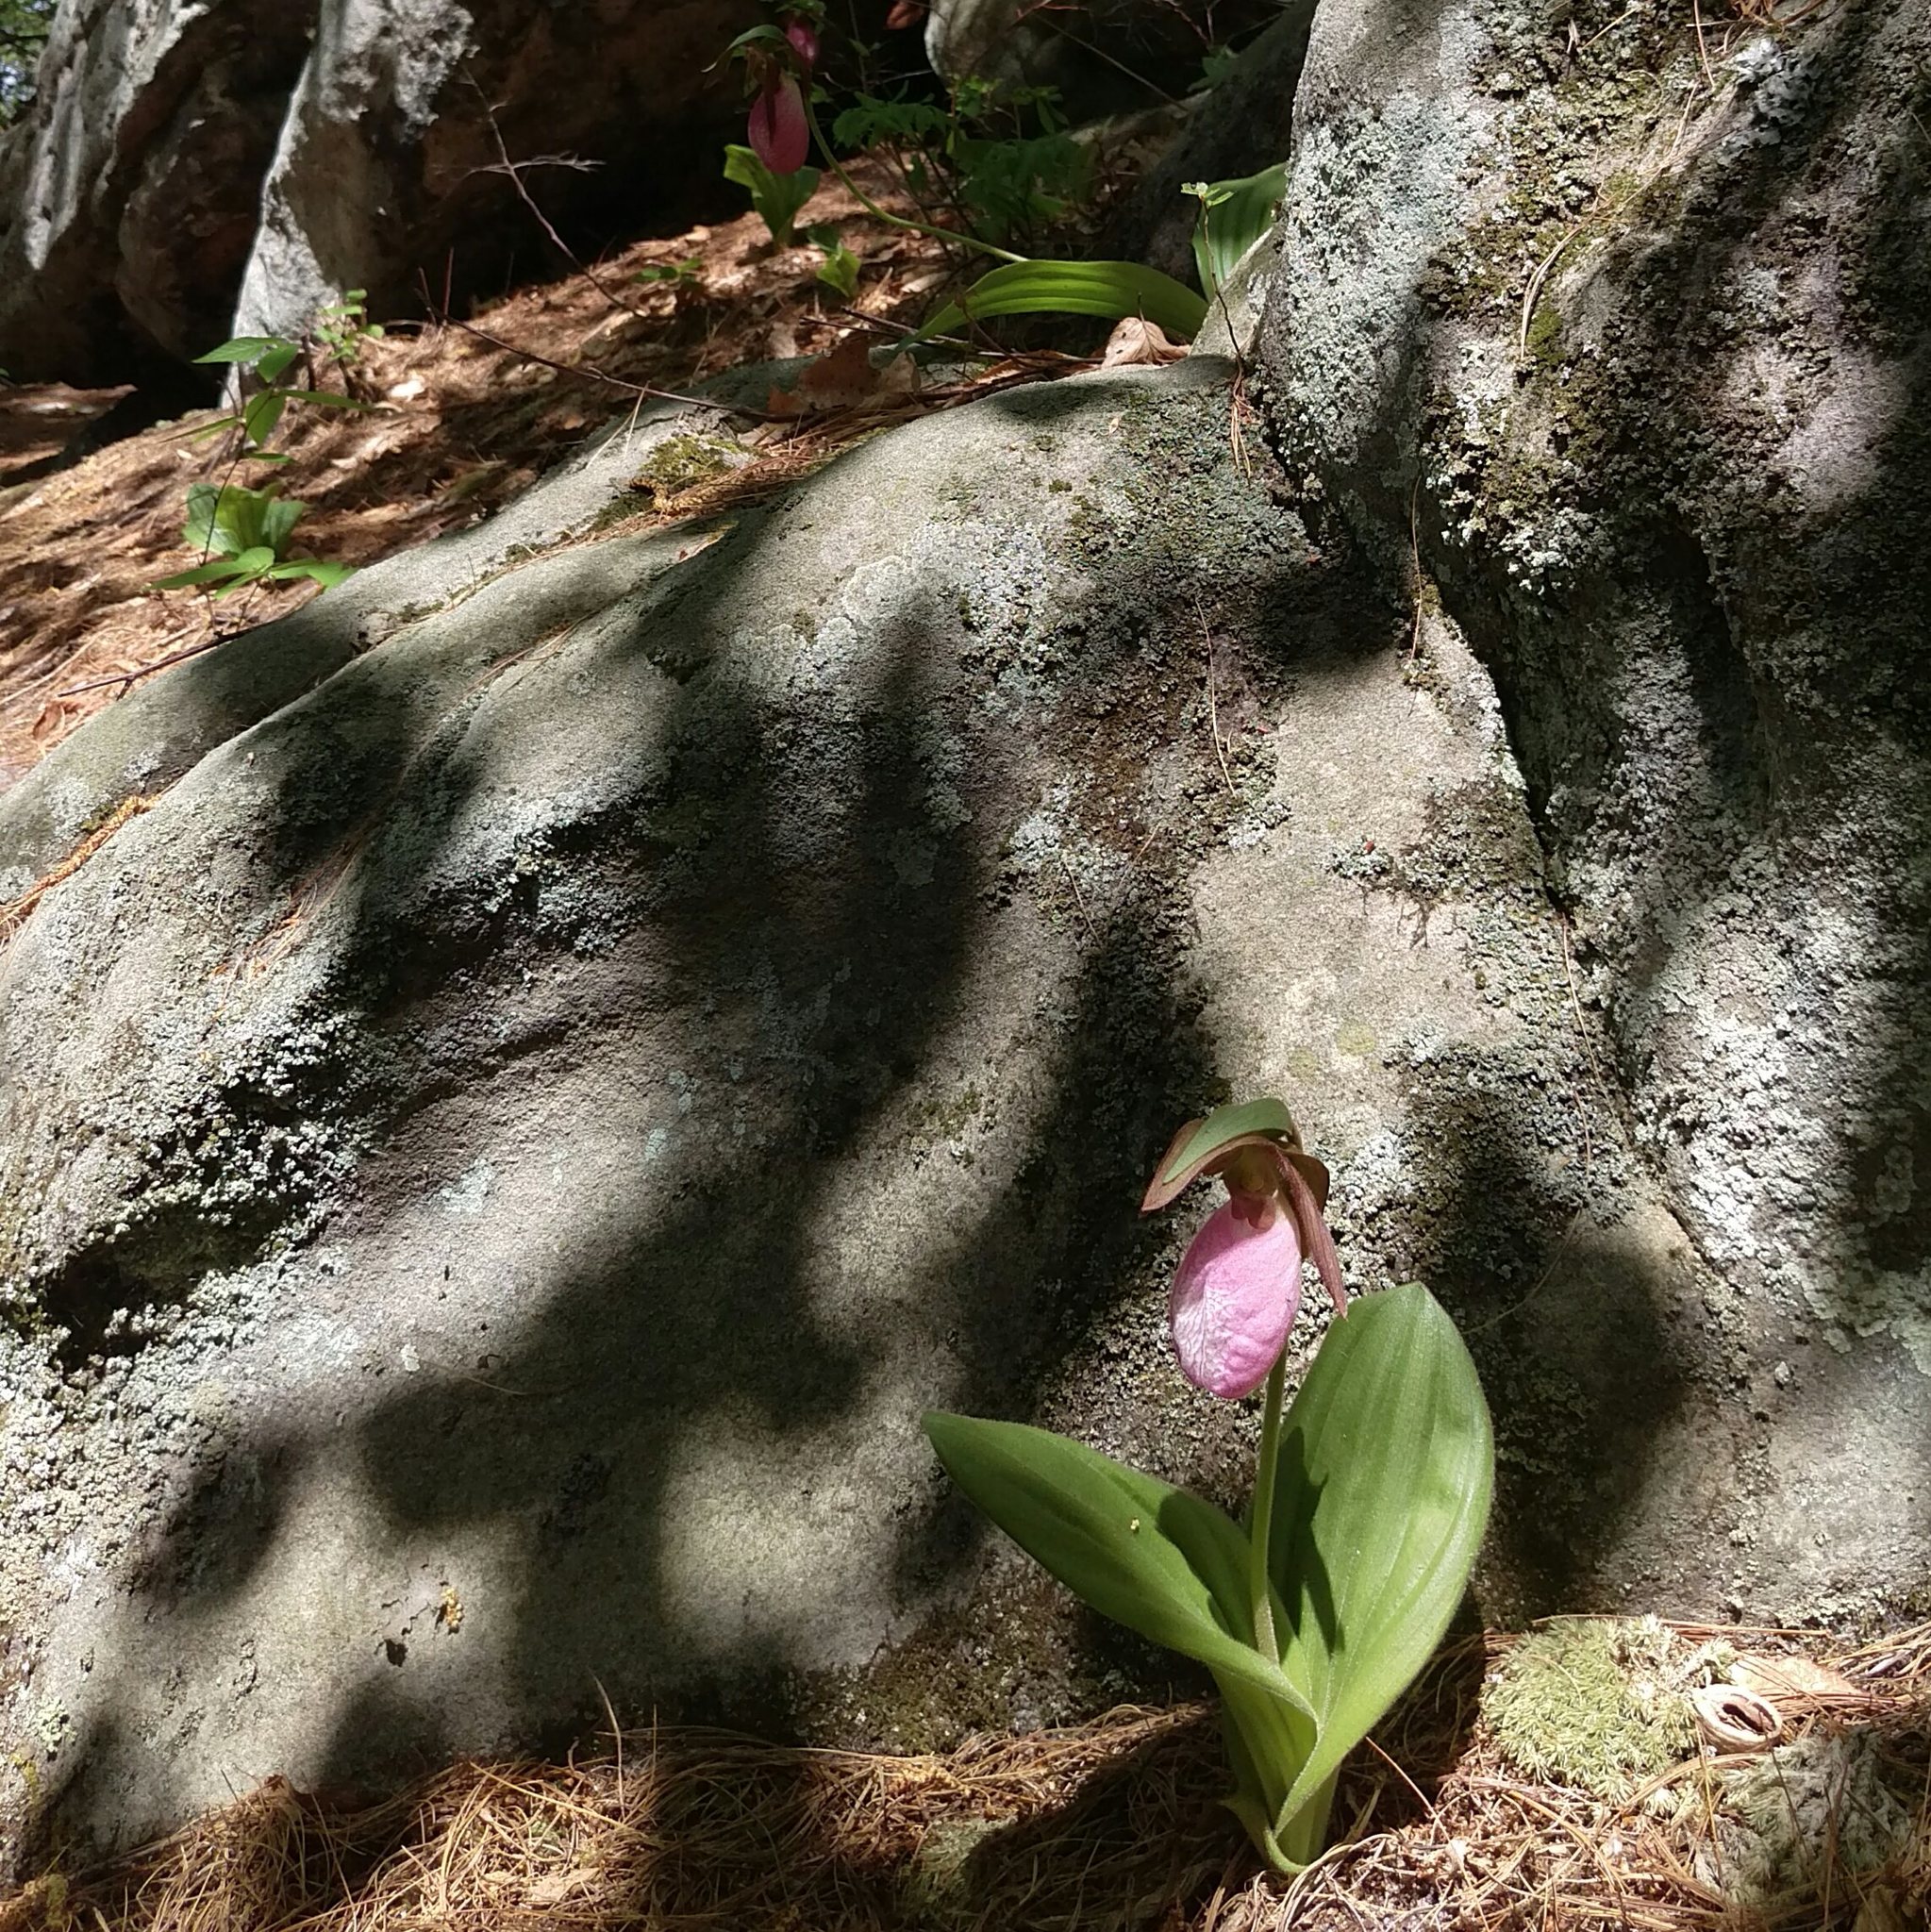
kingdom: Plantae
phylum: Tracheophyta
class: Liliopsida
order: Asparagales
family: Orchidaceae
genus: Cypripedium
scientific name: Cypripedium acaule
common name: Pink lady's-slipper
